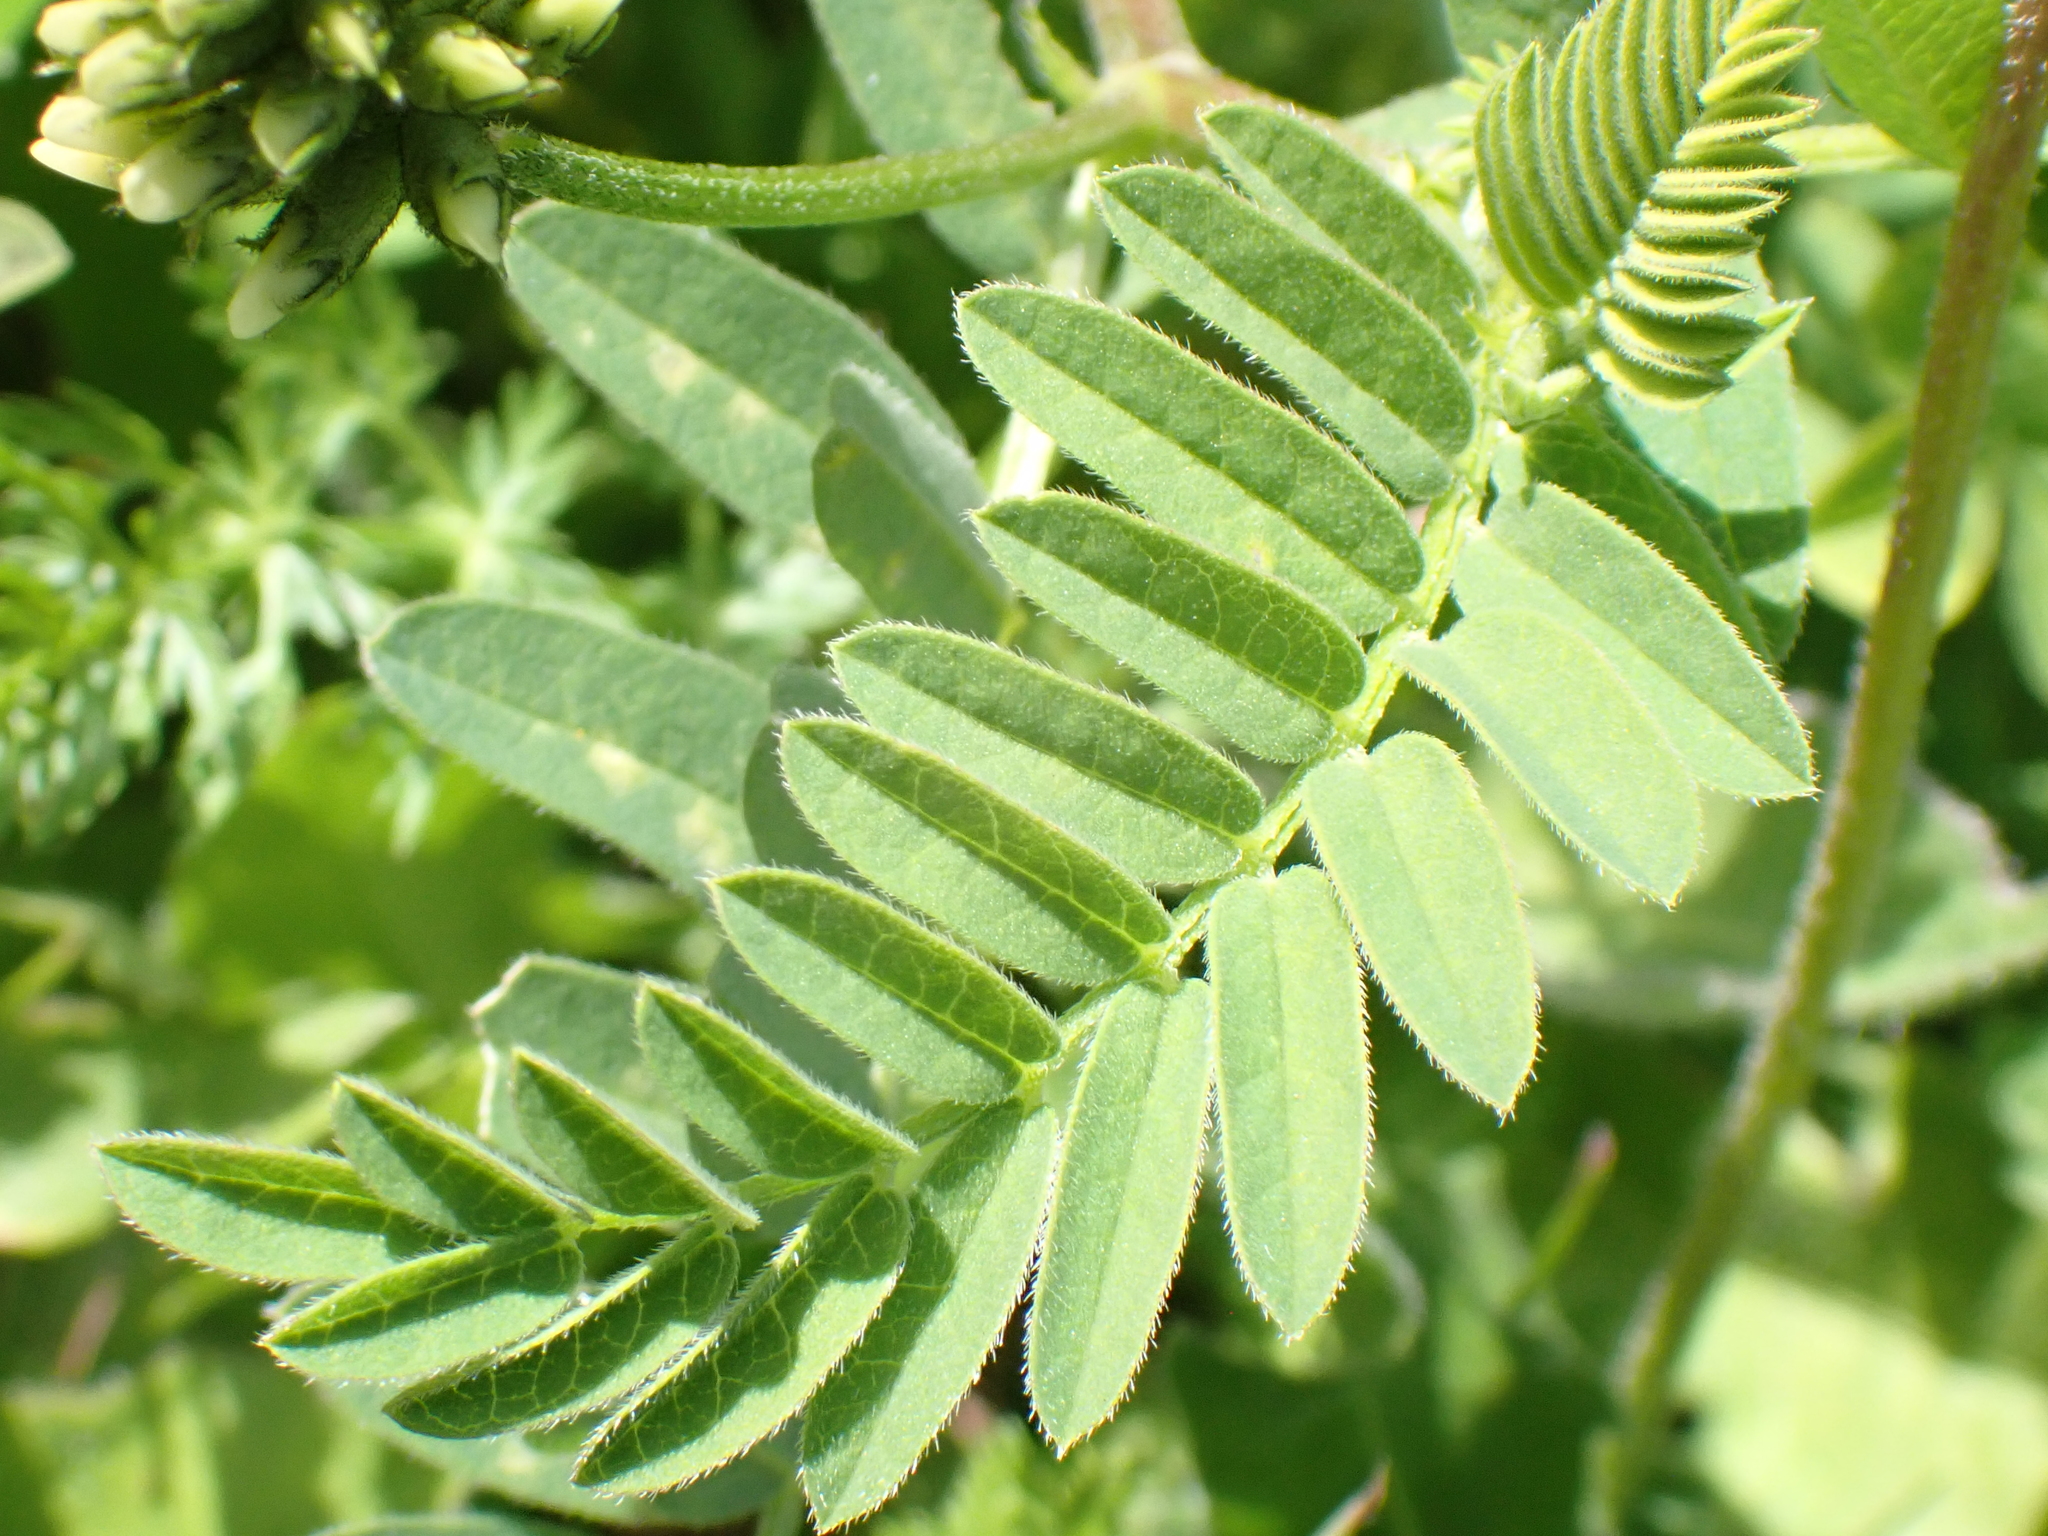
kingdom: Plantae
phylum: Tracheophyta
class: Magnoliopsida
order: Fabales
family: Fabaceae
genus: Astragalus
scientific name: Astragalus cicer
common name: Chick-pea milk-vetch
